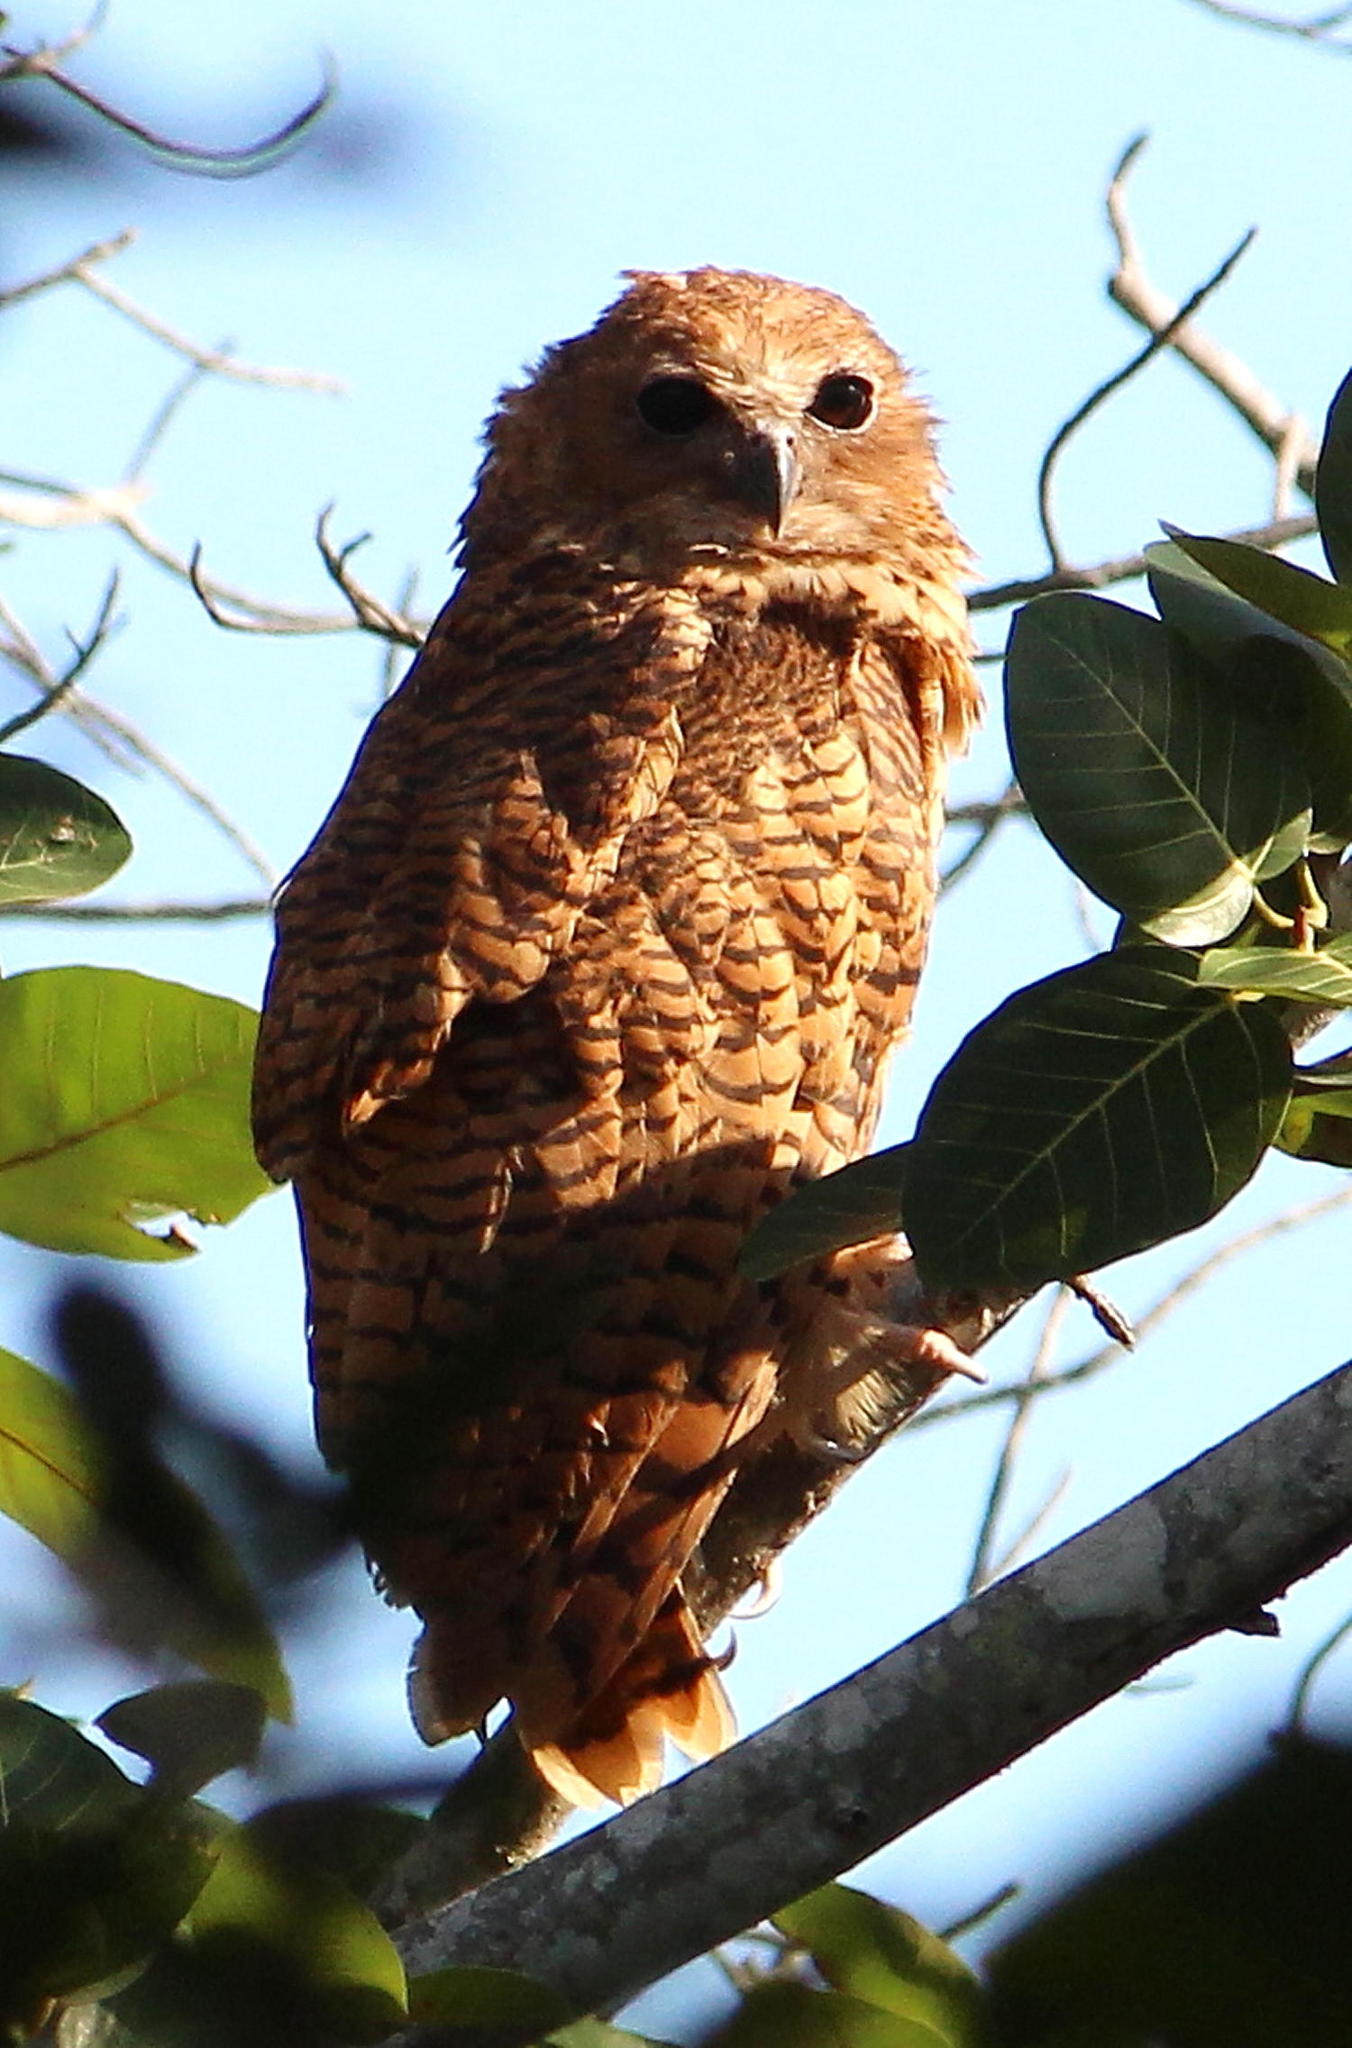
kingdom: Animalia
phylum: Chordata
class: Aves
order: Strigiformes
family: Strigidae
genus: Scotopelia
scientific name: Scotopelia peli
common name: Pel's fishing owl
